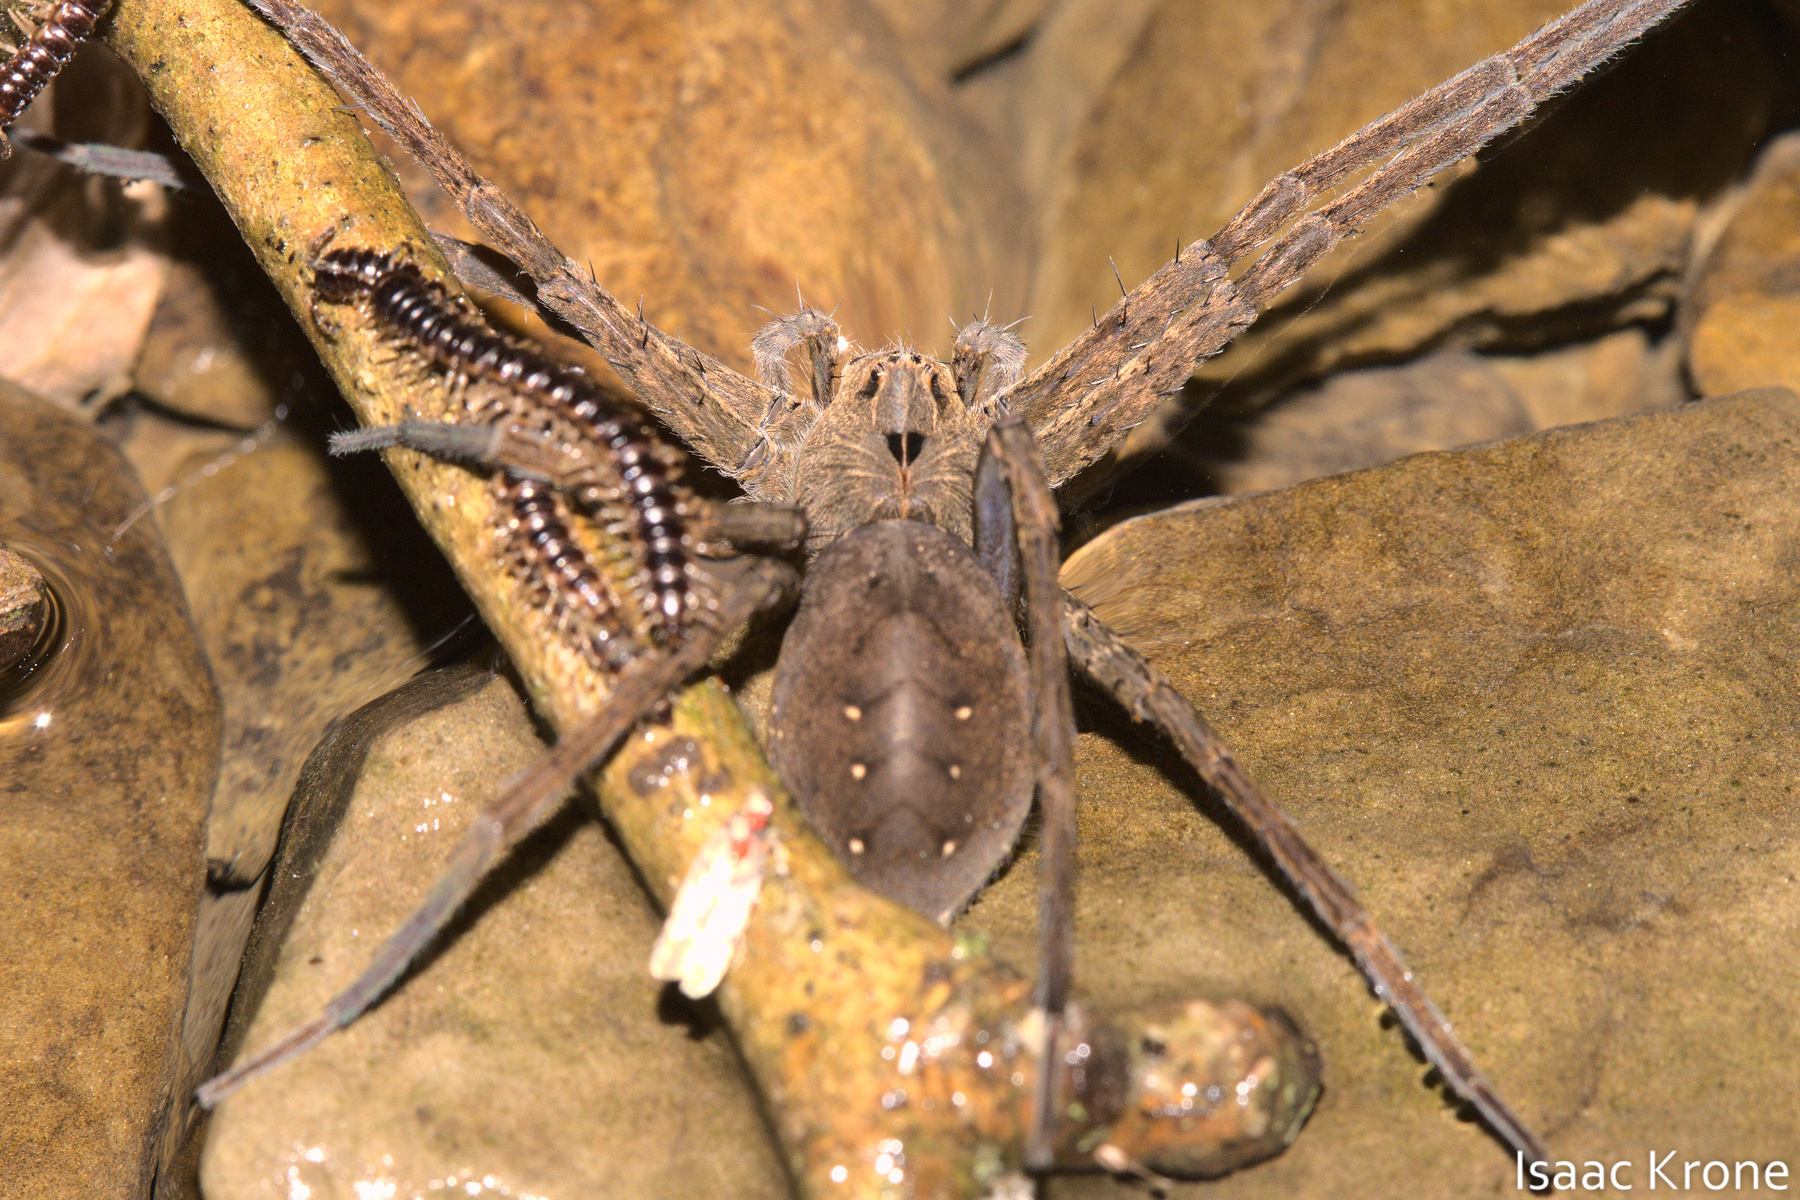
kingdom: Animalia
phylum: Arthropoda
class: Arachnida
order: Araneae
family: Pisauridae
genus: Dolomedes
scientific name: Dolomedes vittatus
